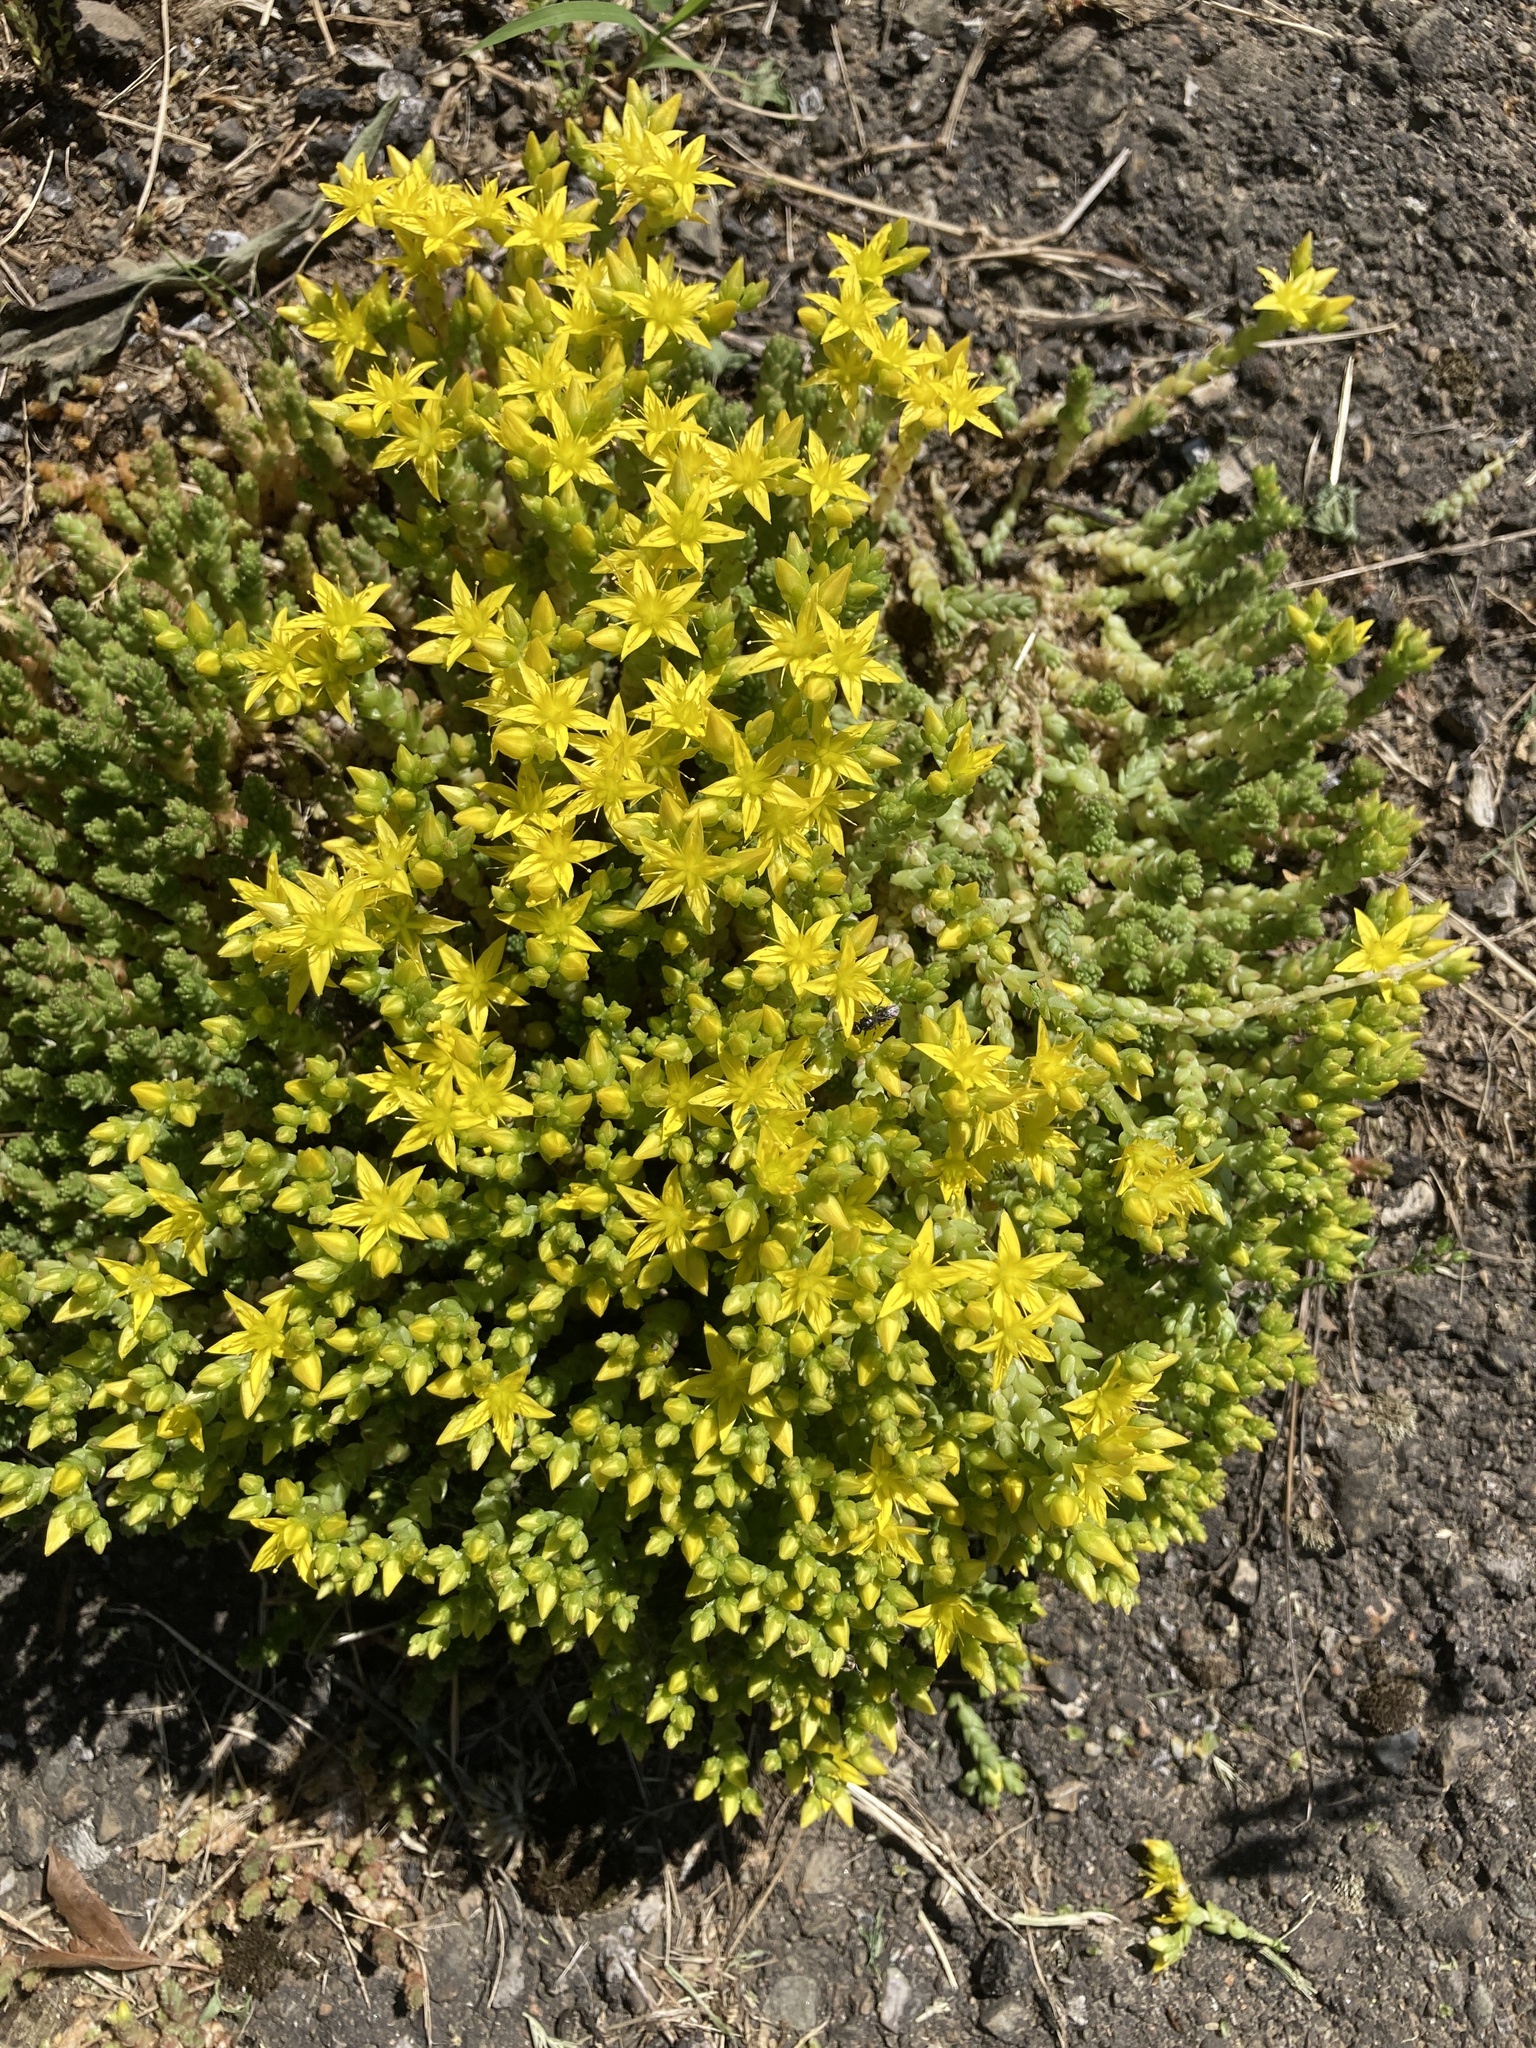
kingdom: Plantae
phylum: Tracheophyta
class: Magnoliopsida
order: Saxifragales
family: Crassulaceae
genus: Sedum
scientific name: Sedum acre
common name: Biting stonecrop
